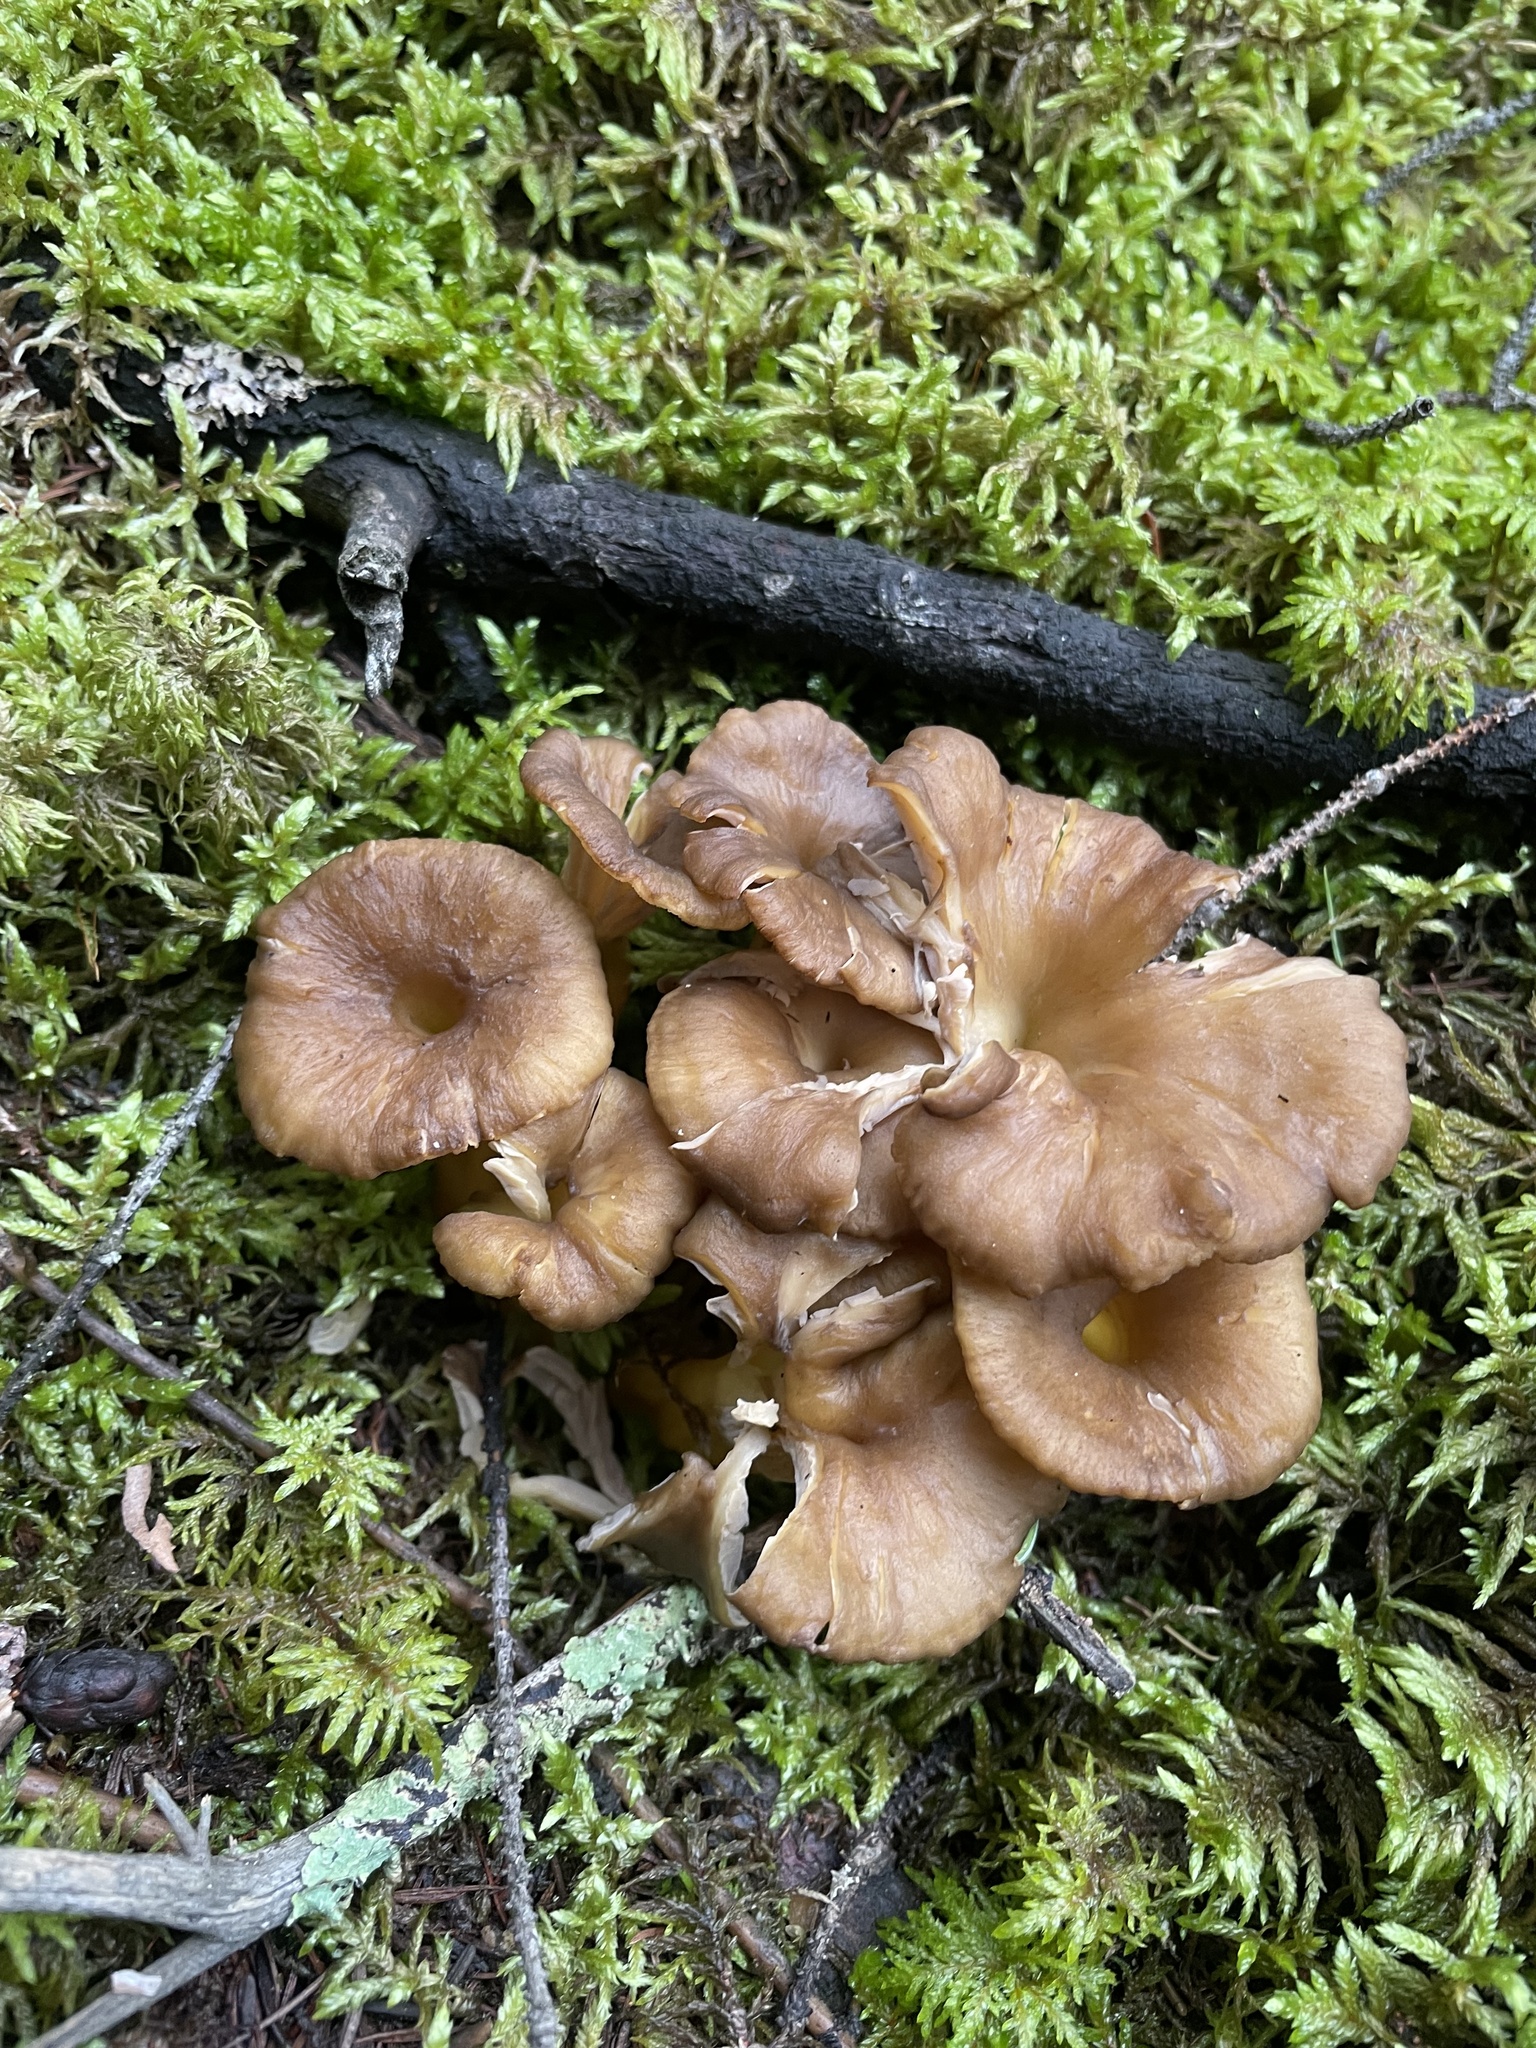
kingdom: Fungi
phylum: Basidiomycota
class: Agaricomycetes
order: Cantharellales
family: Hydnaceae
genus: Craterellus
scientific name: Craterellus tubaeformis
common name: Yellowfoot
